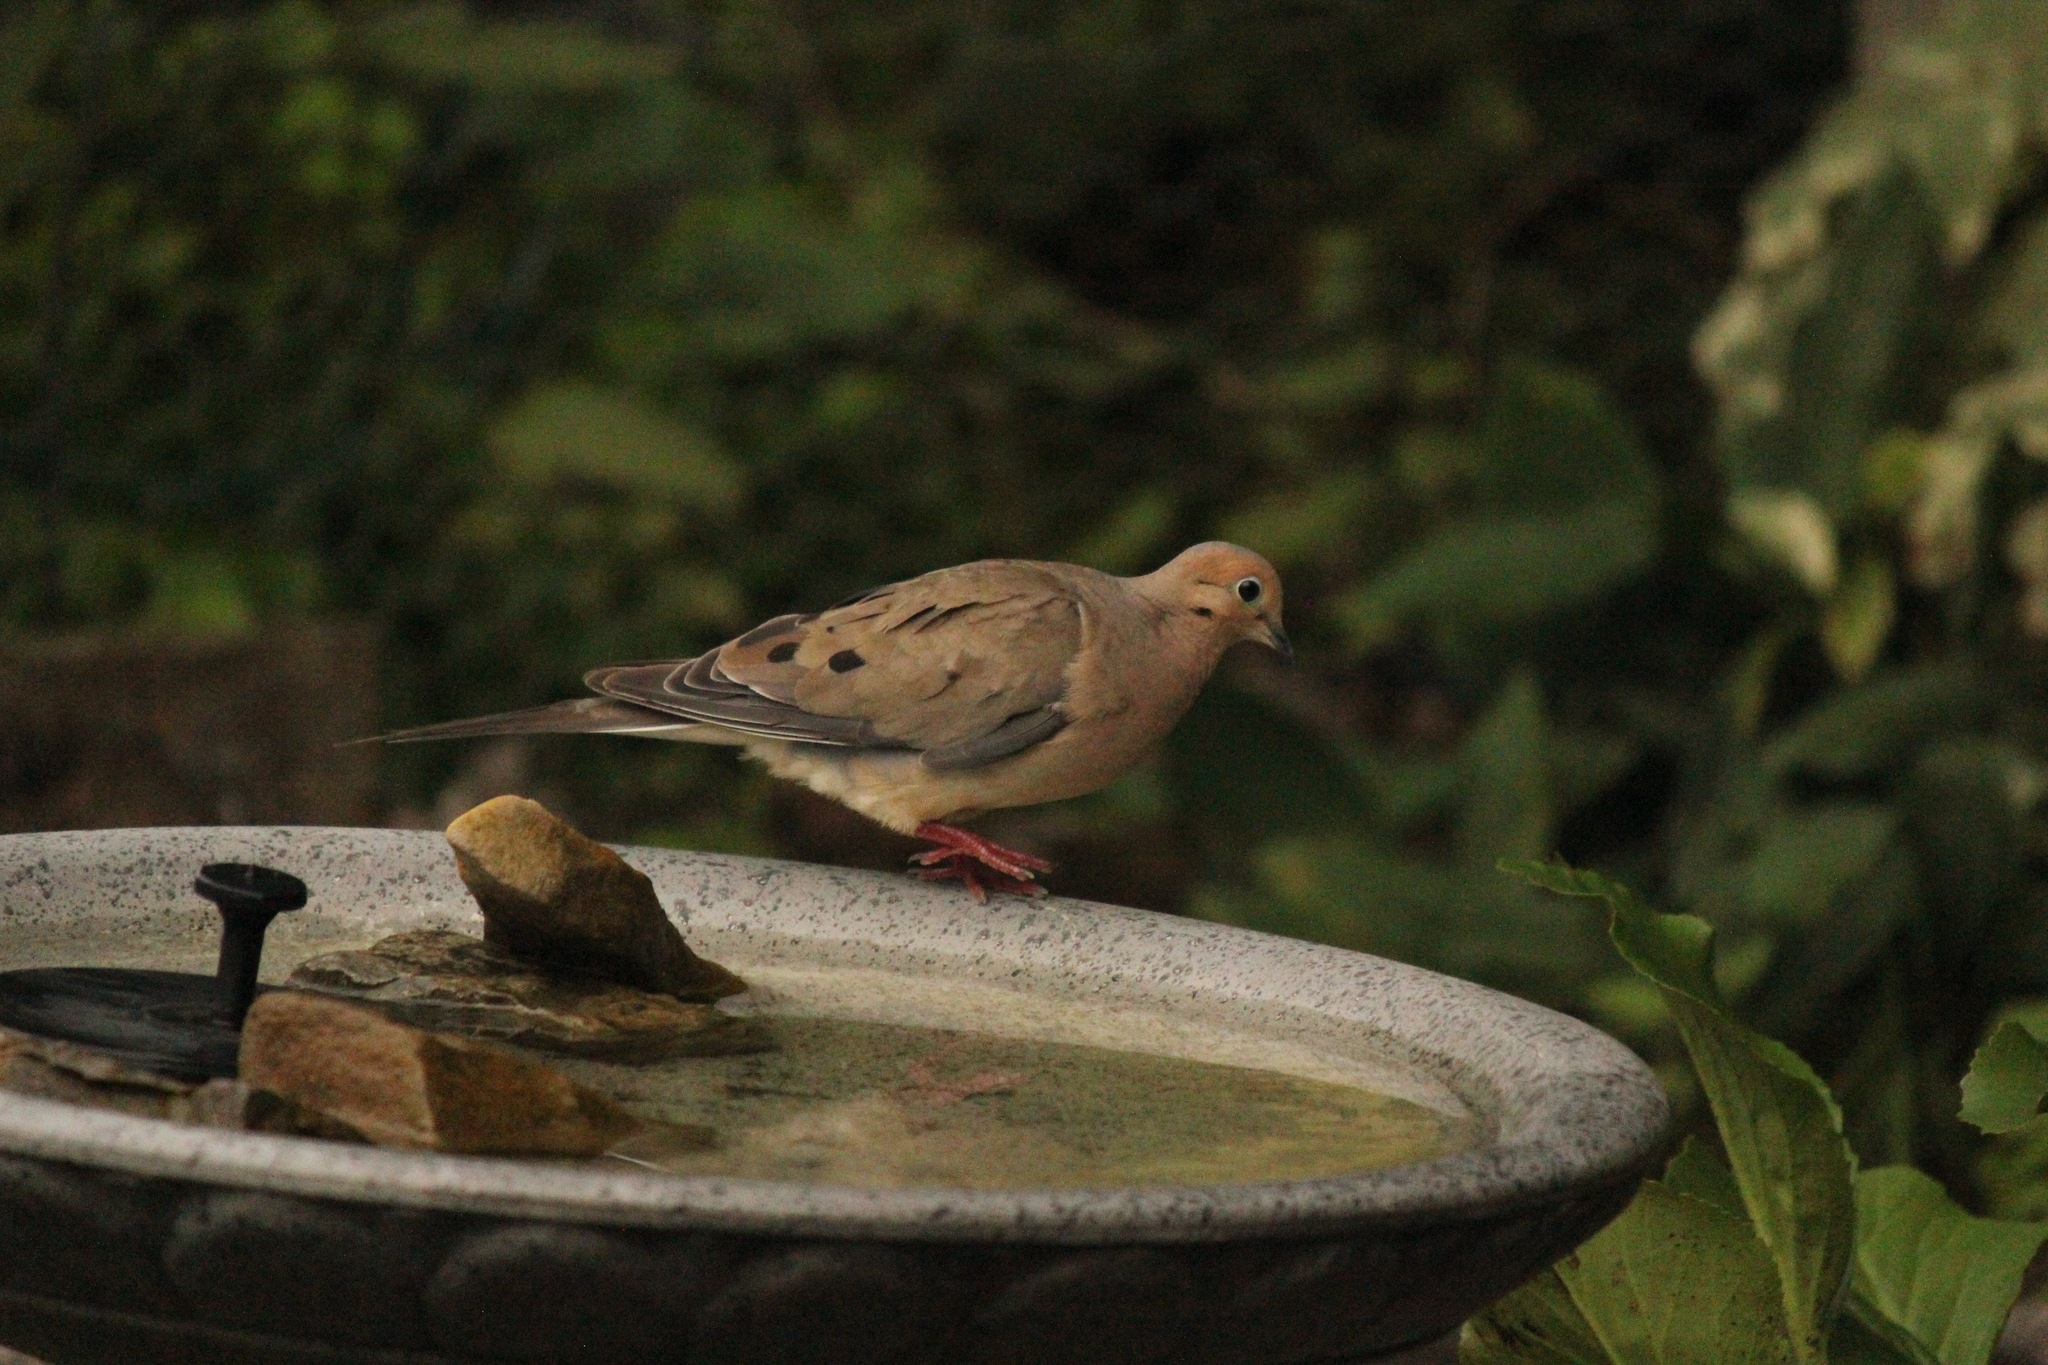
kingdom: Animalia
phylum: Chordata
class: Aves
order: Columbiformes
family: Columbidae
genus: Zenaida
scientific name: Zenaida macroura
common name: Mourning dove
